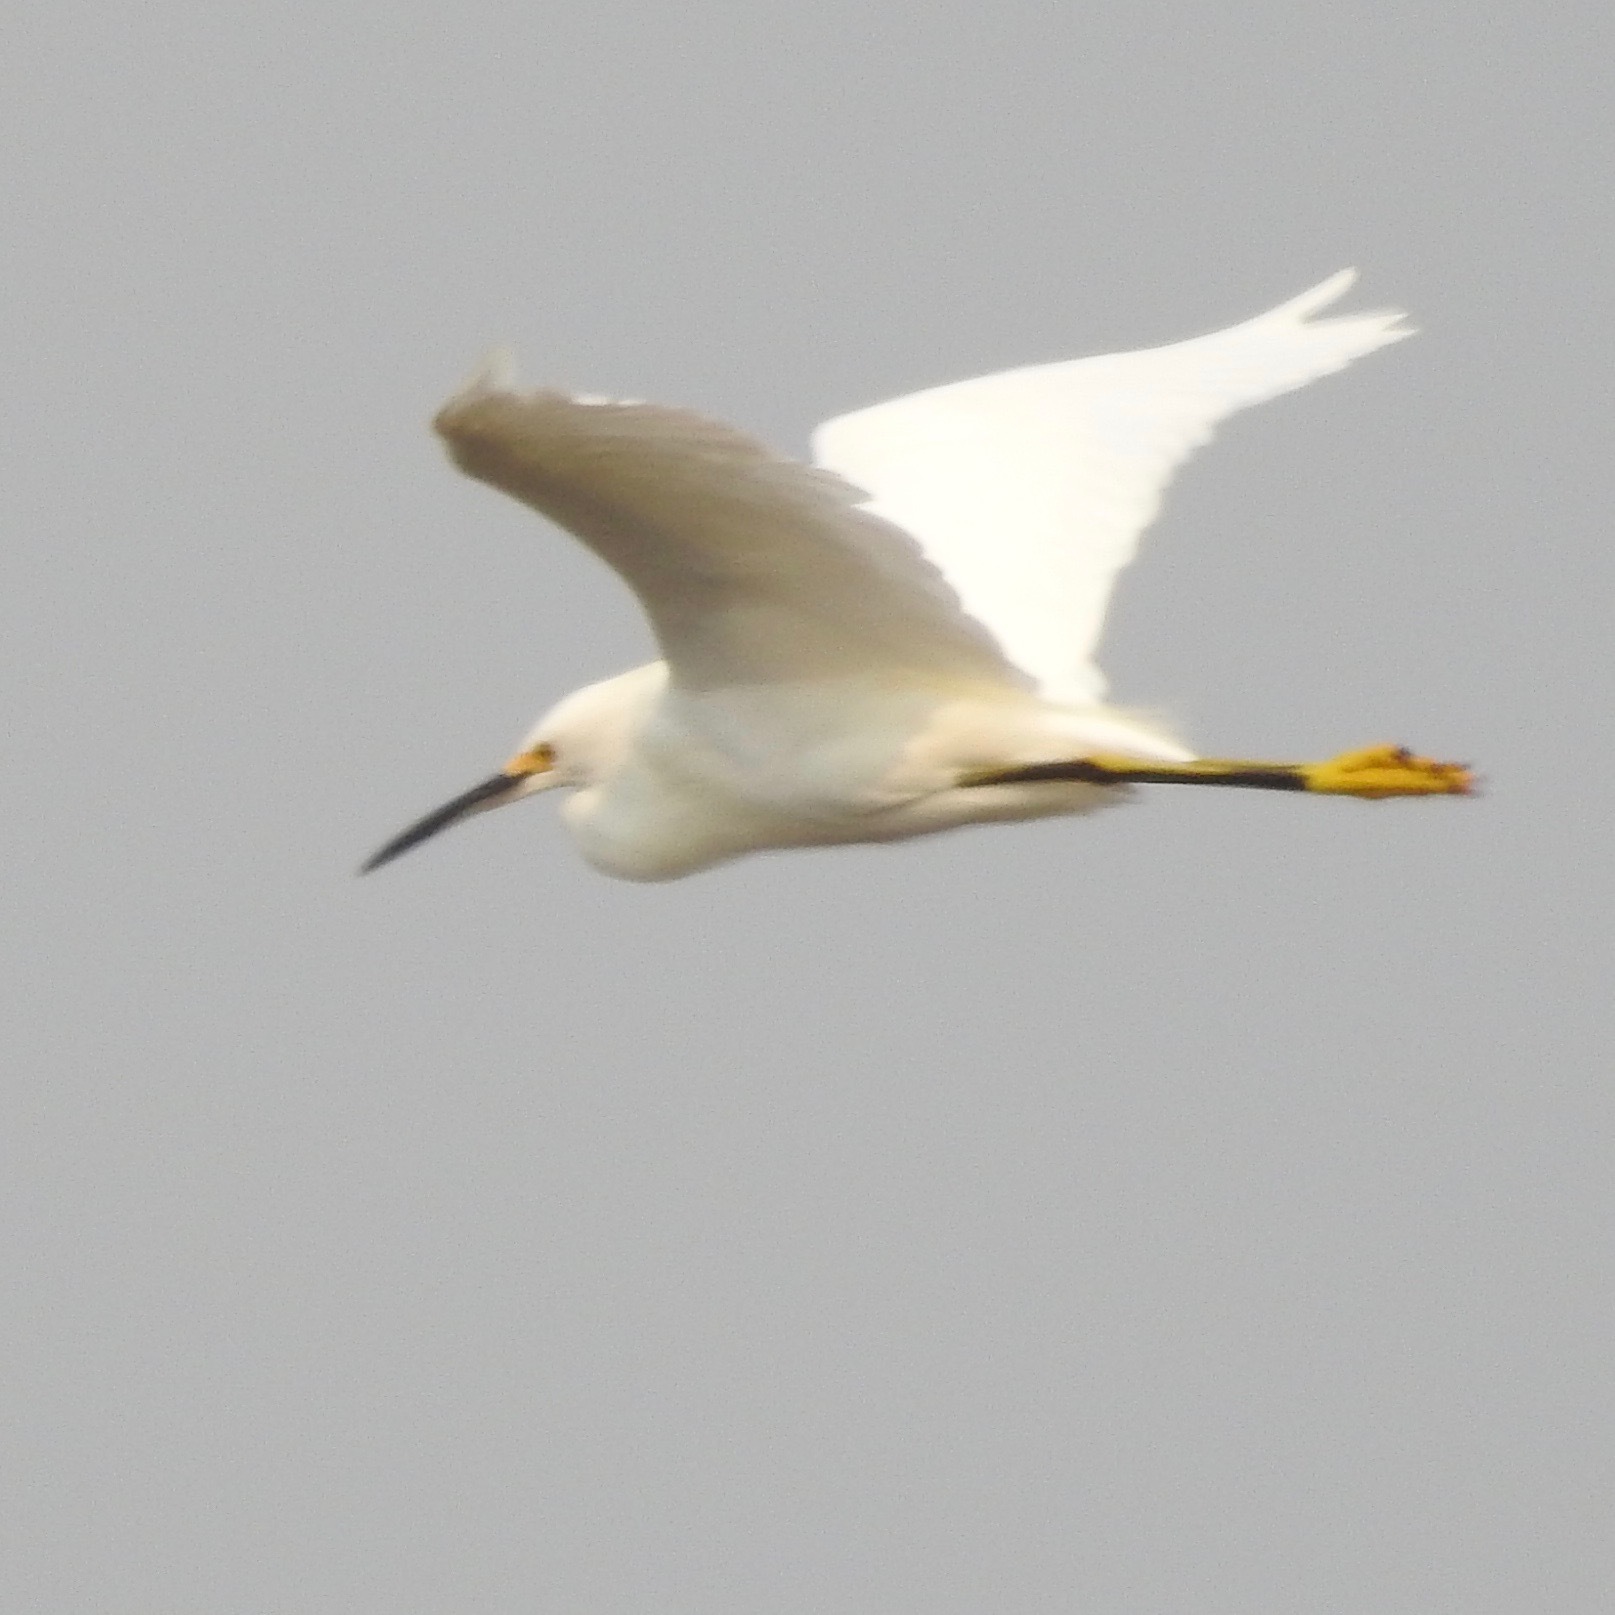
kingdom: Animalia
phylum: Chordata
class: Aves
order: Pelecaniformes
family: Ardeidae
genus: Egretta
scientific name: Egretta thula
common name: Snowy egret
